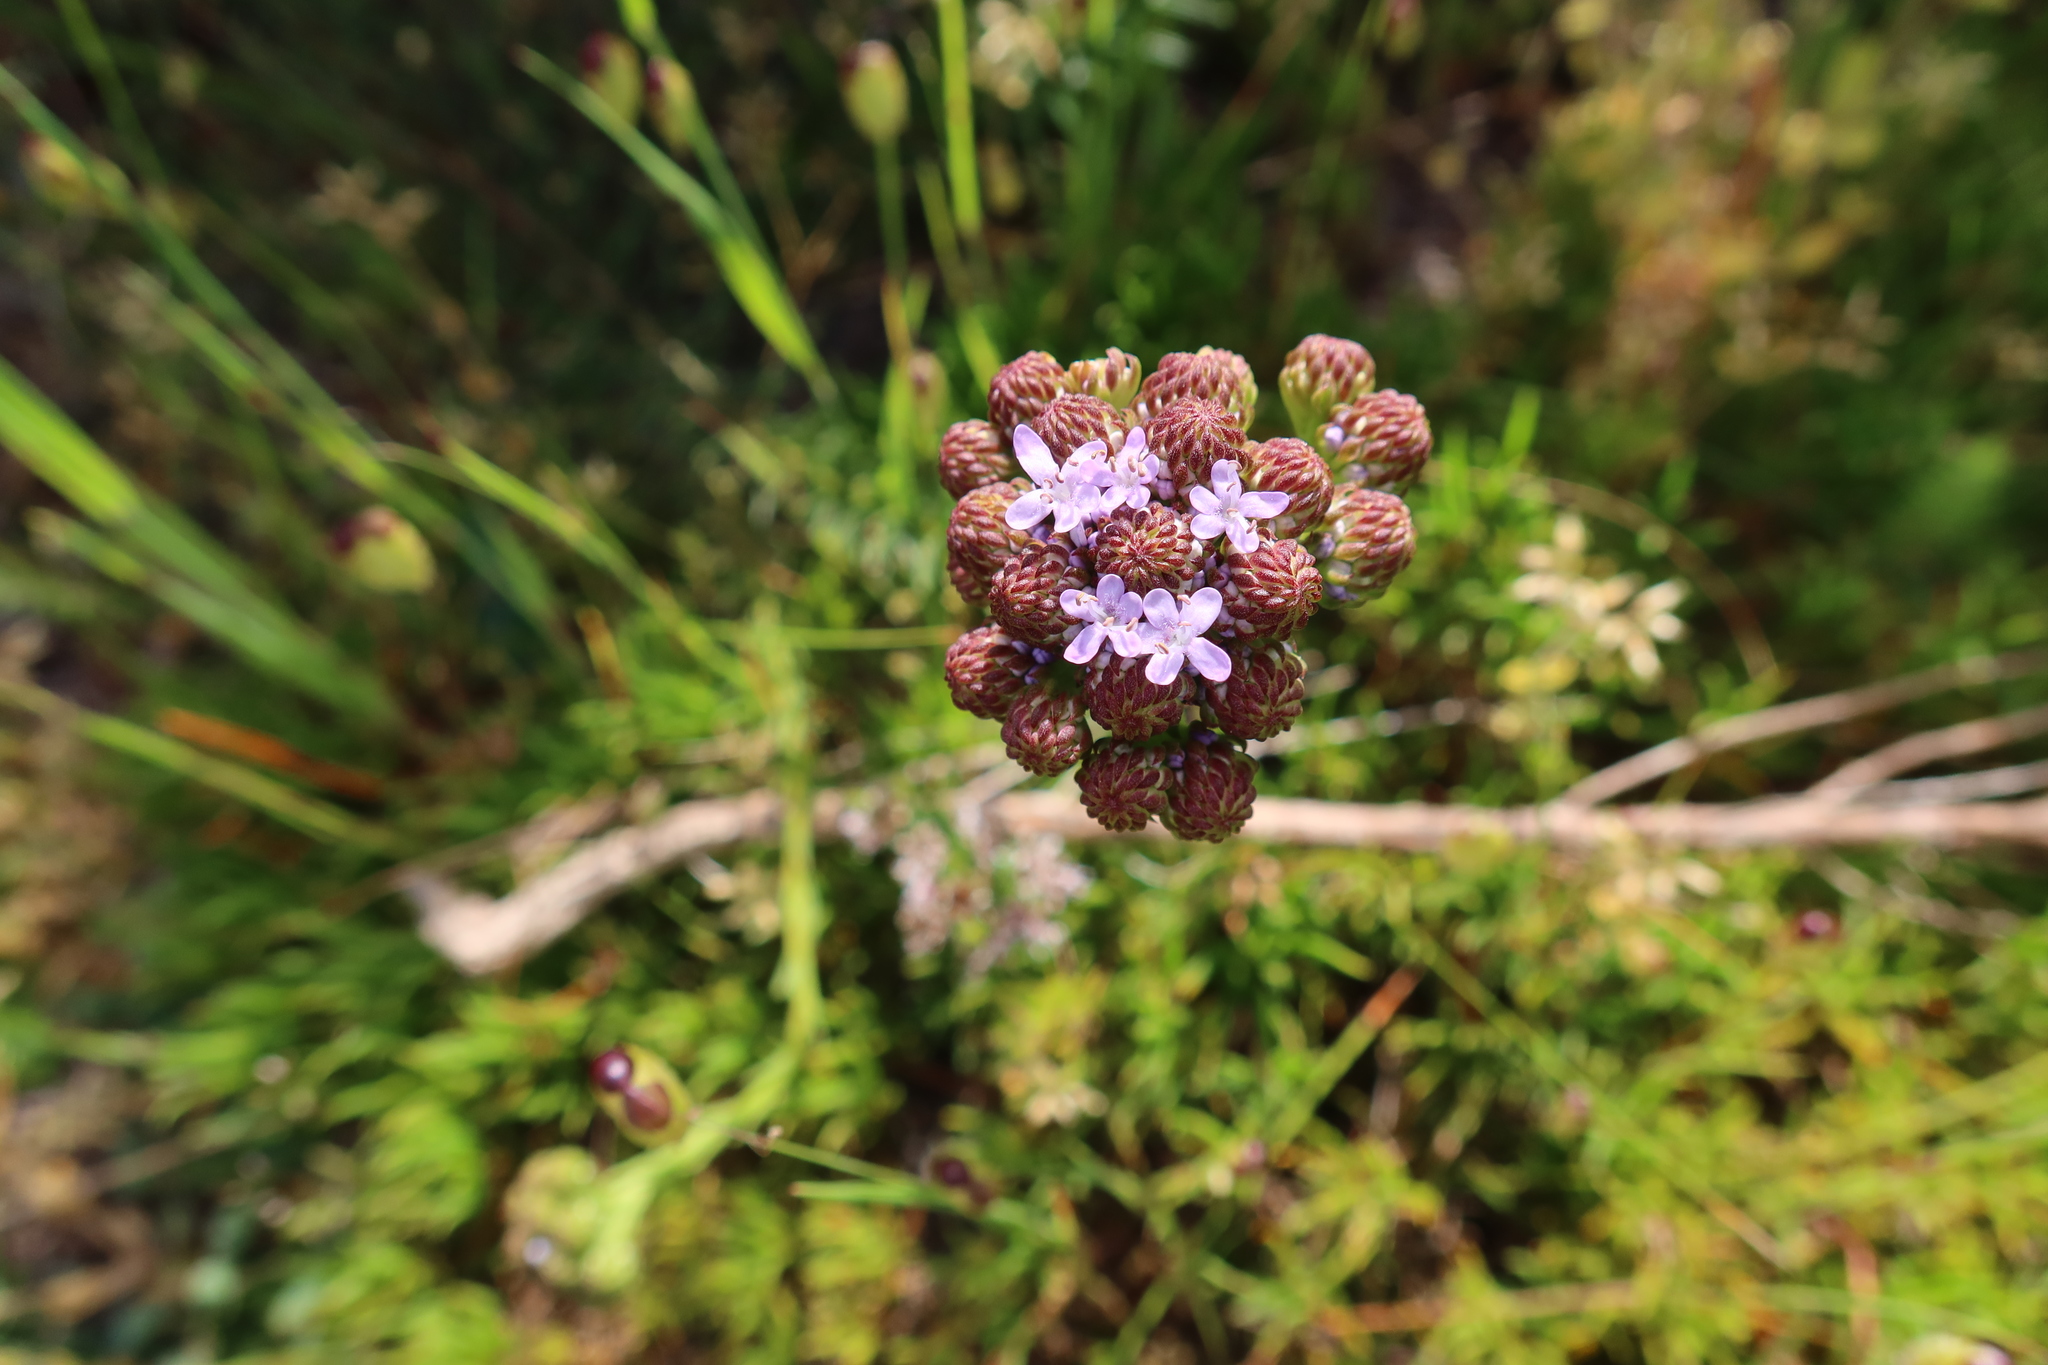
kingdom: Plantae
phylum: Tracheophyta
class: Magnoliopsida
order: Lamiales
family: Scrophulariaceae
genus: Pseudoselago
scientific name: Pseudoselago spuria
